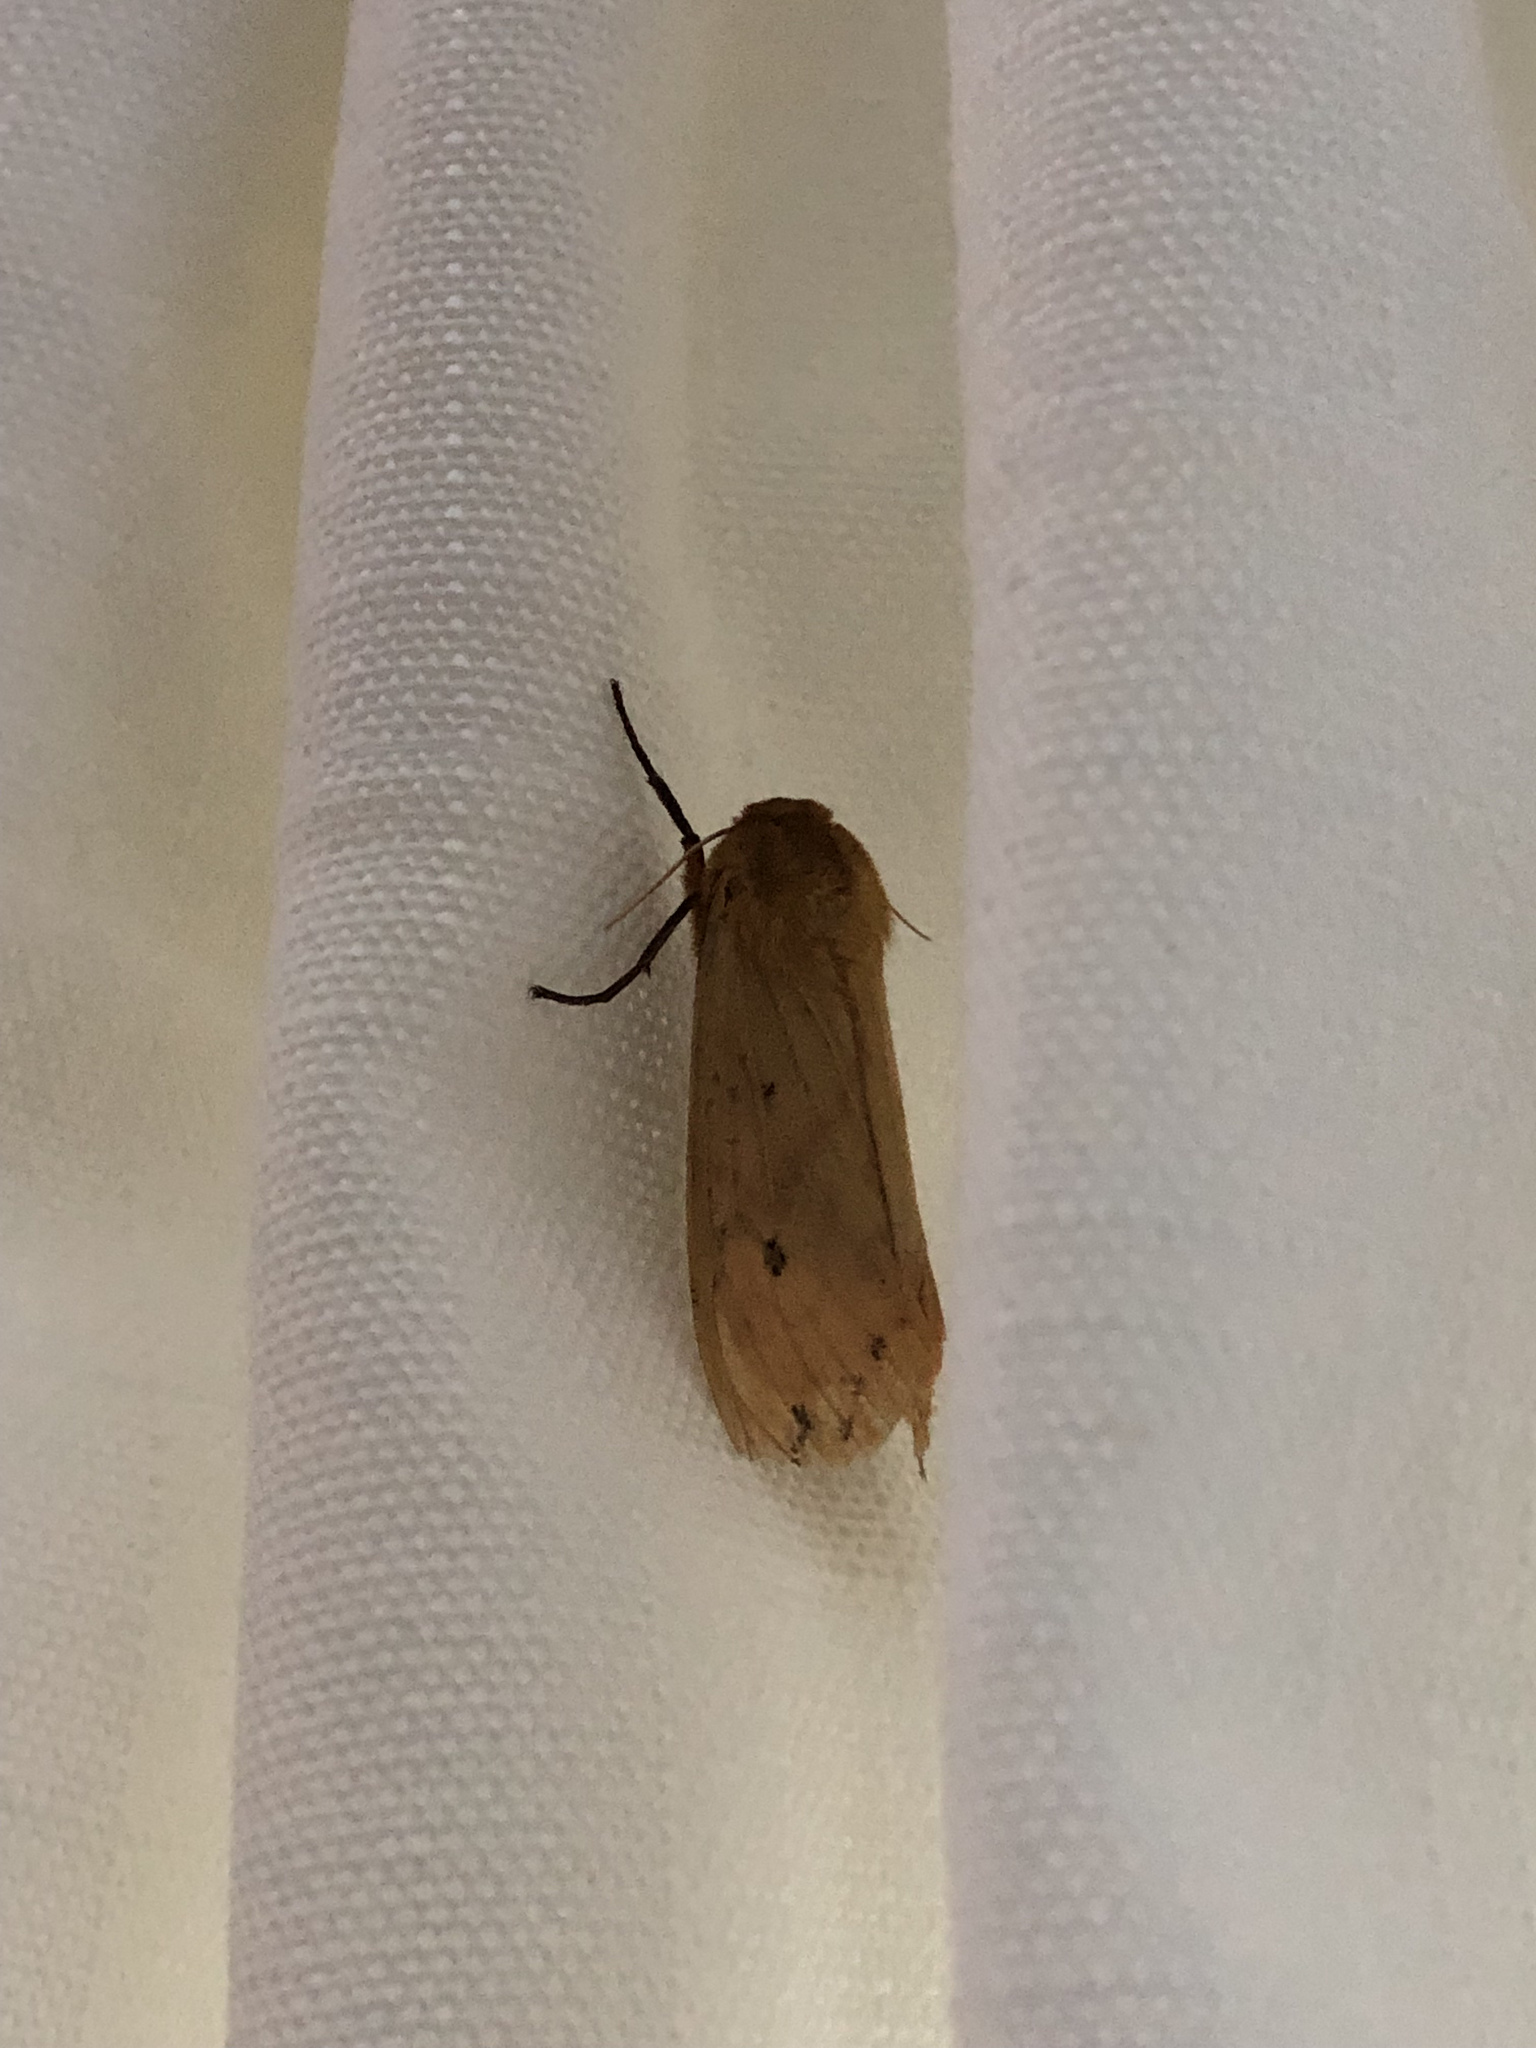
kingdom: Animalia
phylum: Arthropoda
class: Insecta
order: Lepidoptera
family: Erebidae
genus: Pyrrharctia
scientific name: Pyrrharctia isabella
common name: Isabella tiger moth
